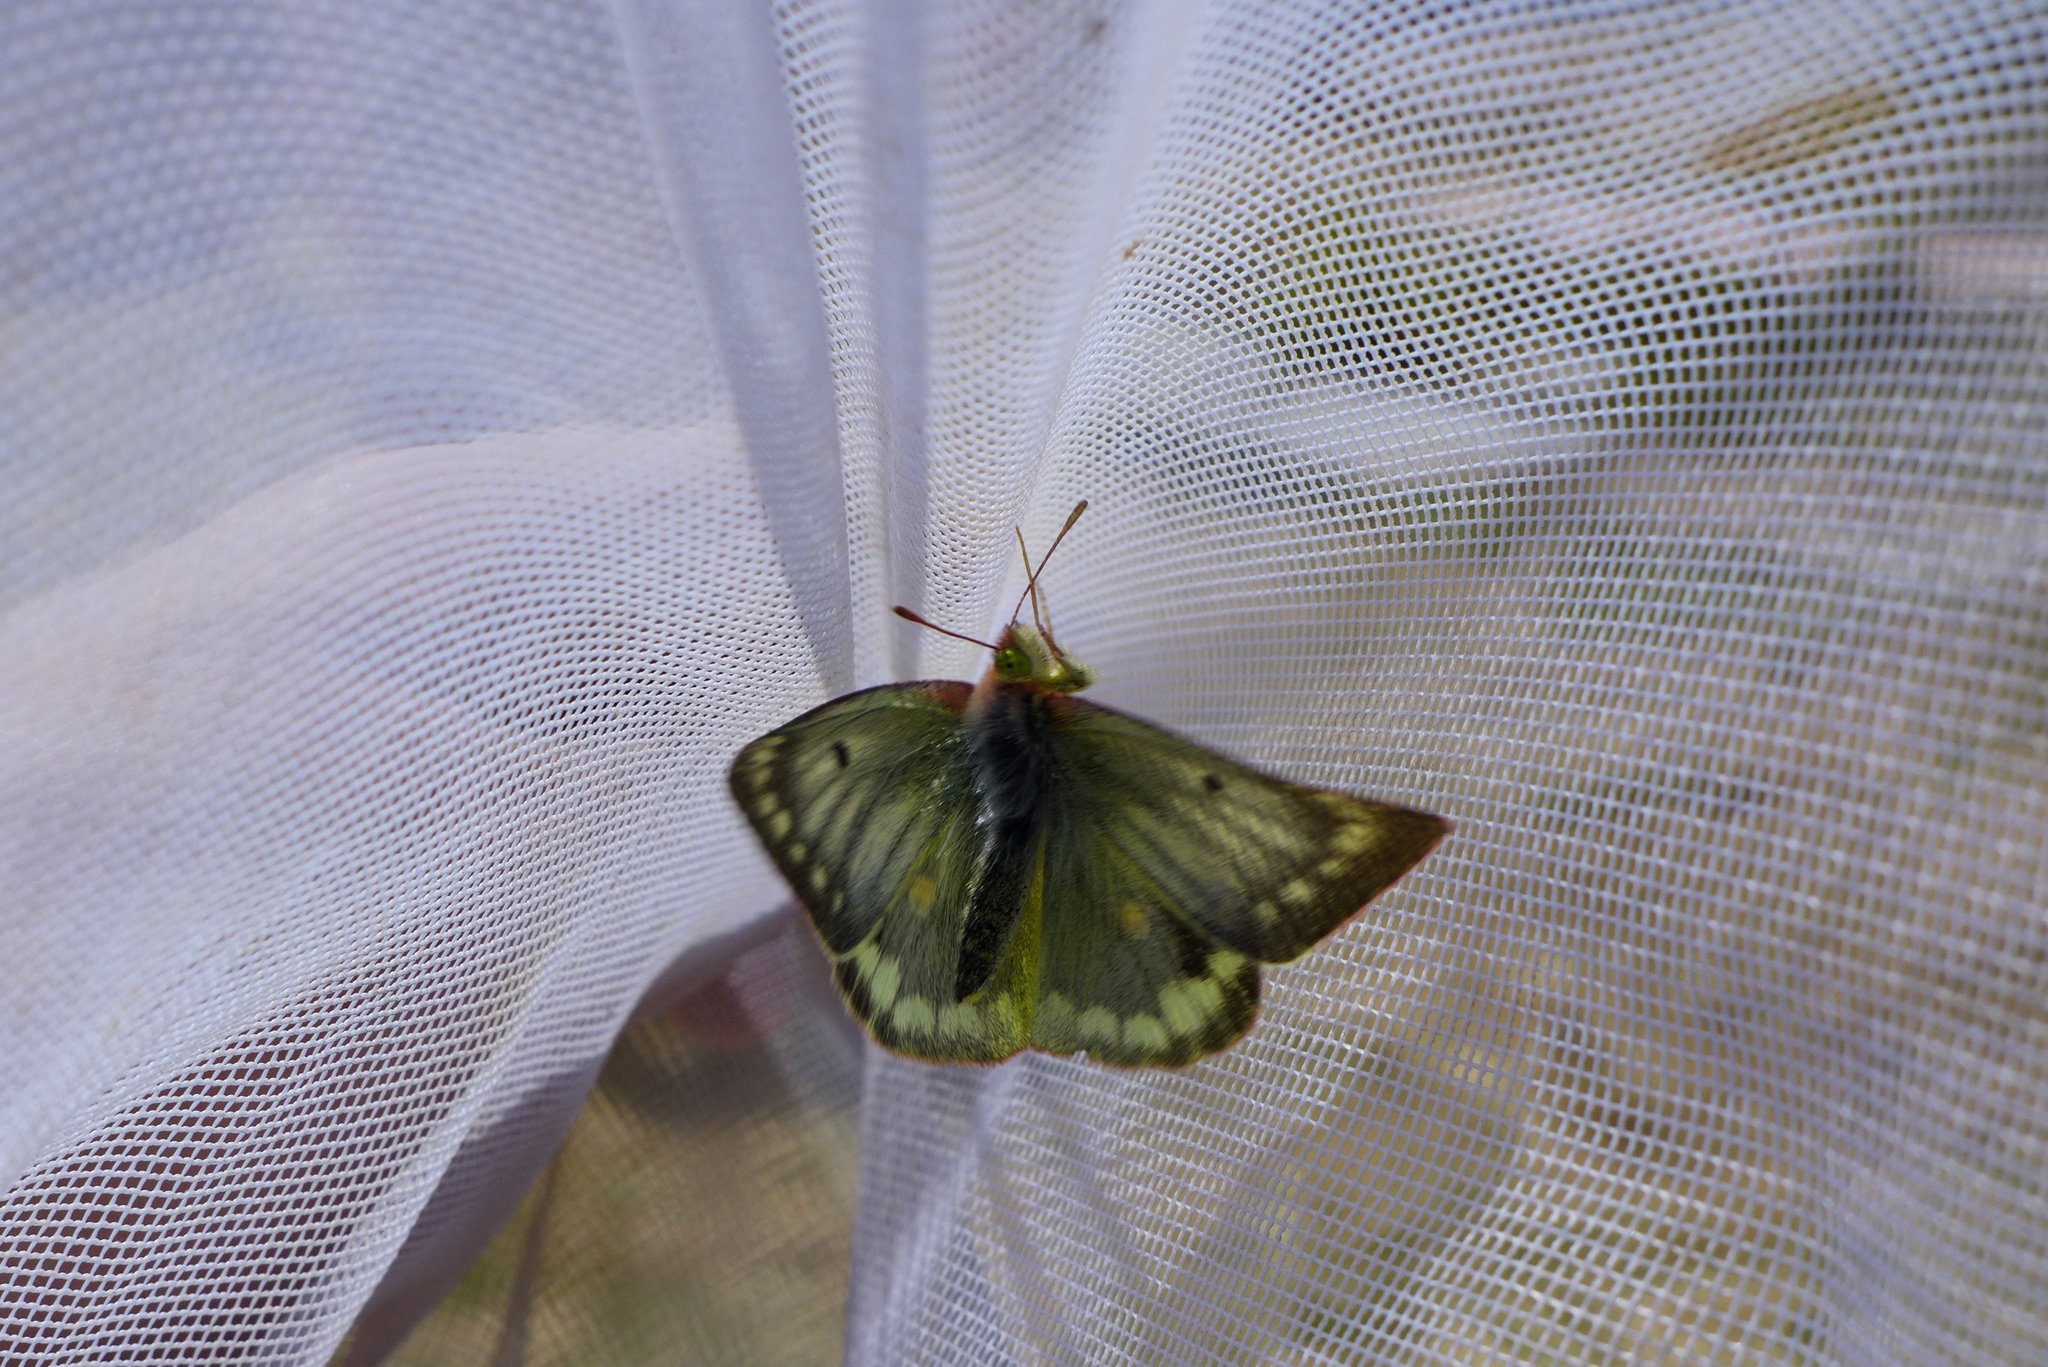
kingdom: Animalia
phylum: Arthropoda
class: Insecta
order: Lepidoptera
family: Pieridae
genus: Colias
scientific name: Colias phicomone
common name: Mountain clouded yellow
